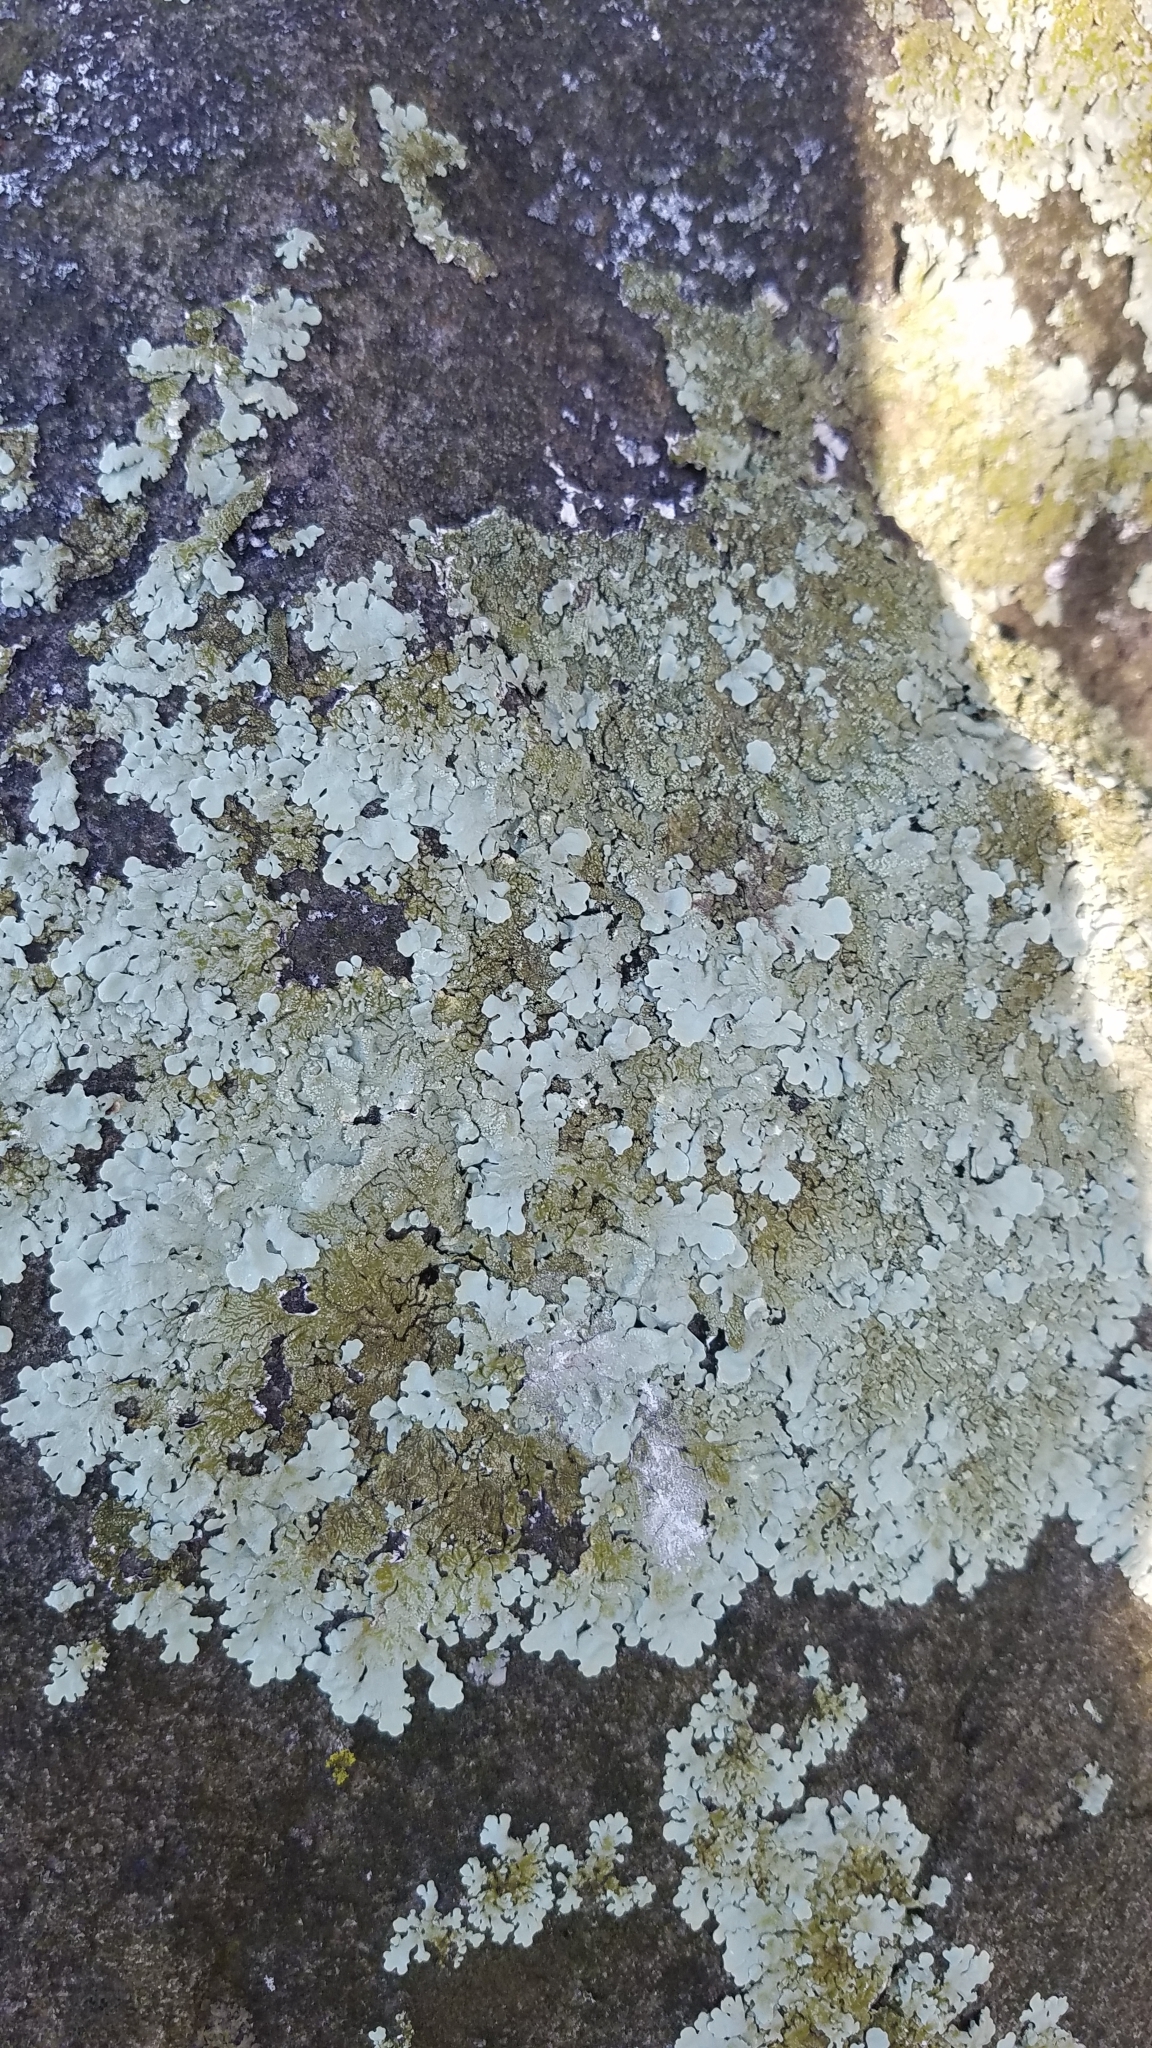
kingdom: Fungi
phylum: Ascomycota
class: Lecanoromycetes
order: Lecanorales
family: Parmeliaceae
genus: Flavoparmelia
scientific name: Flavoparmelia baltimorensis
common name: Rock greenshield
